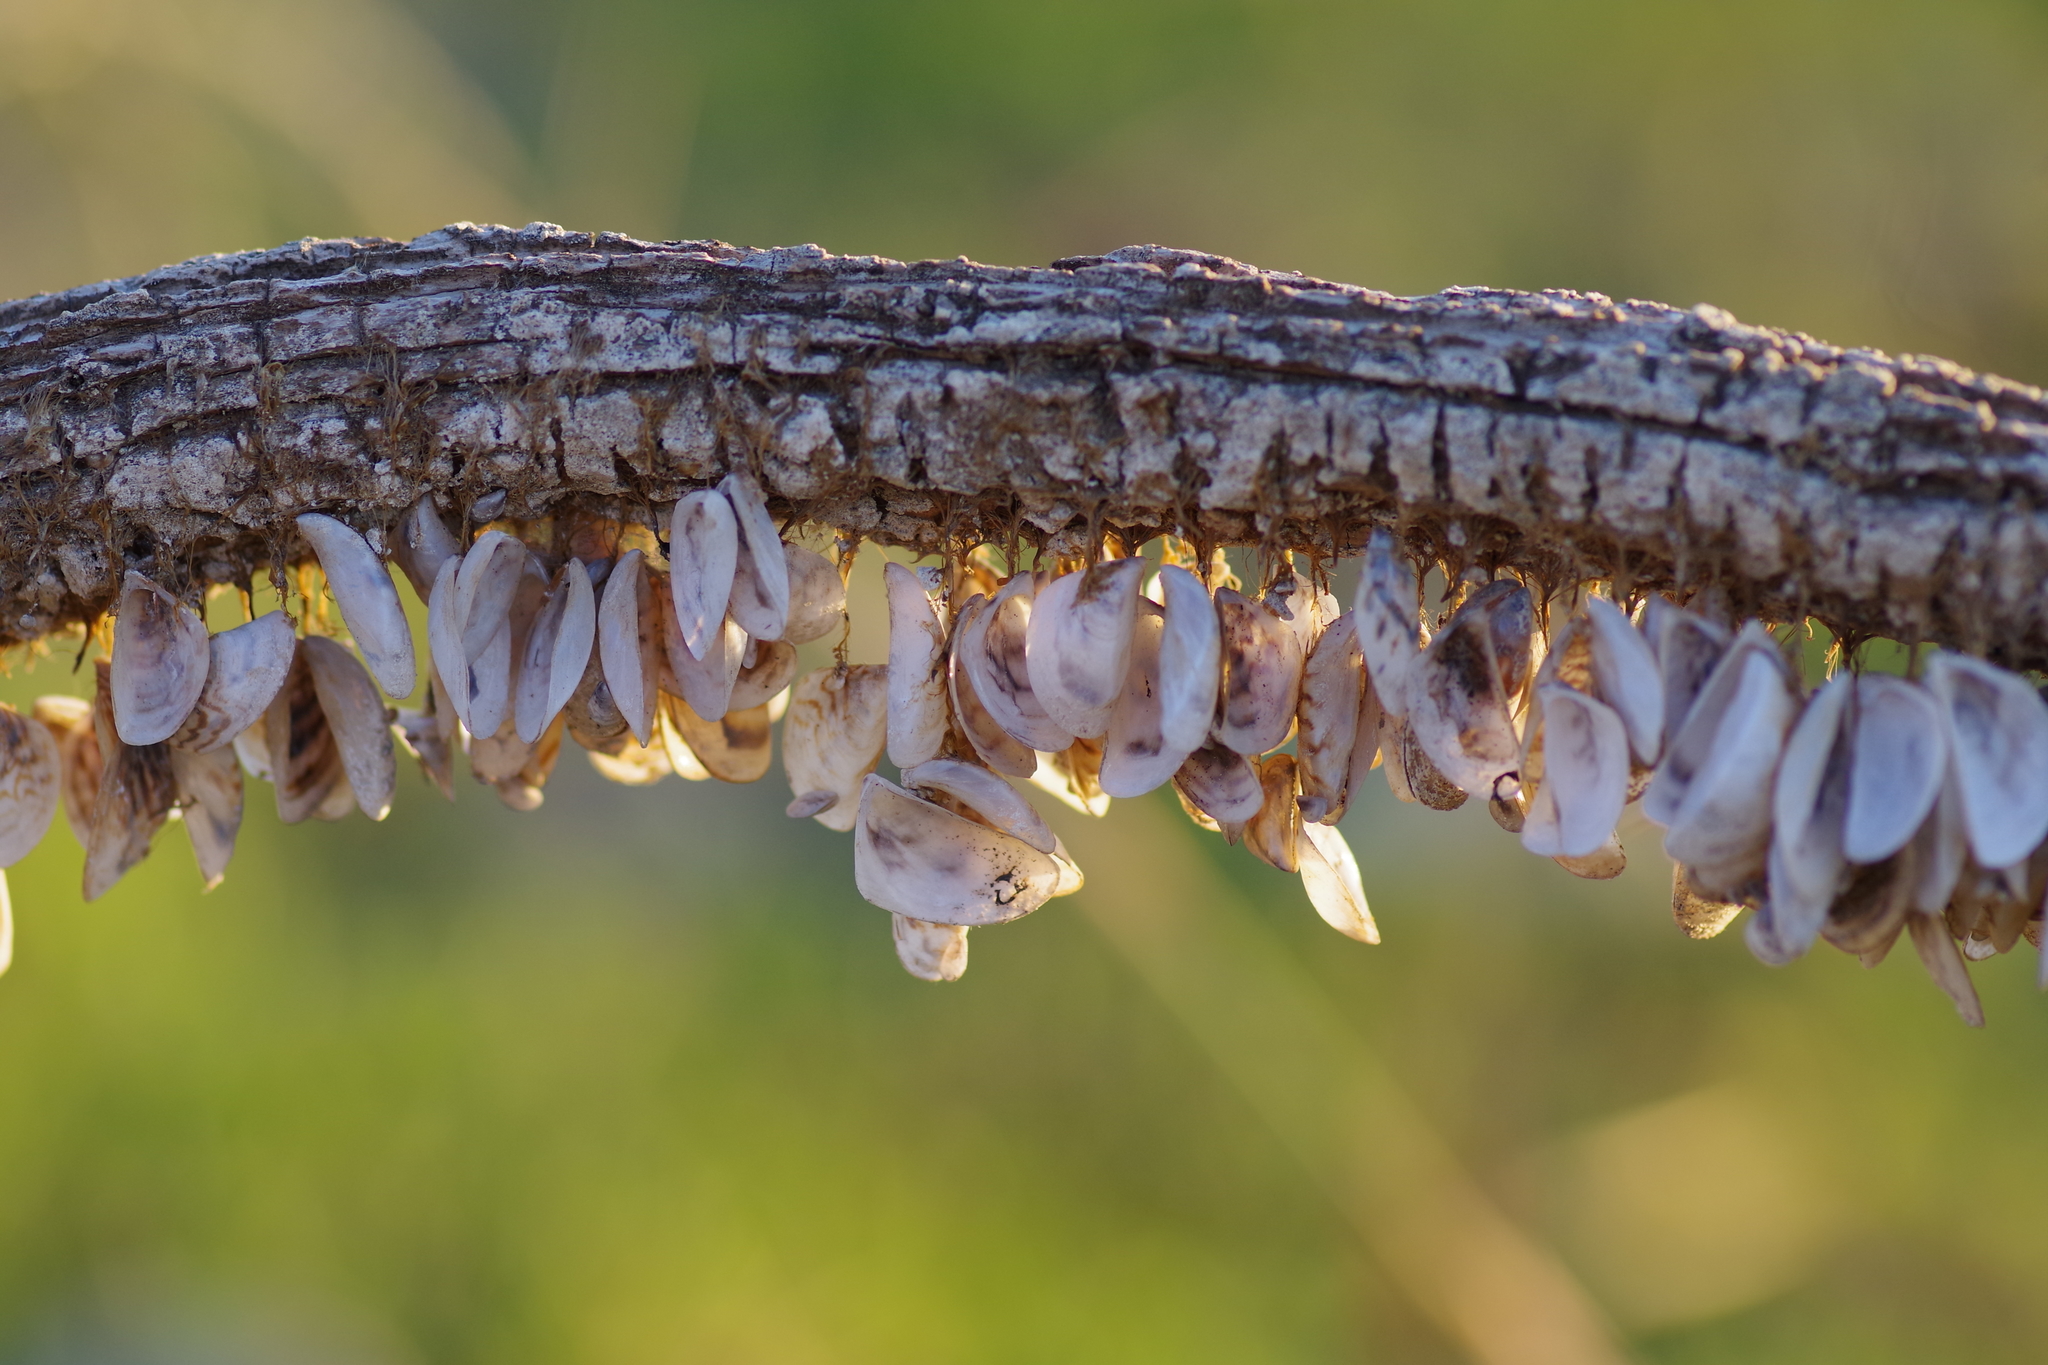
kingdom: Animalia
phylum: Mollusca
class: Bivalvia
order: Myida
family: Dreissenidae
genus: Dreissena
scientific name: Dreissena polymorpha
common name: Zebra mussel
